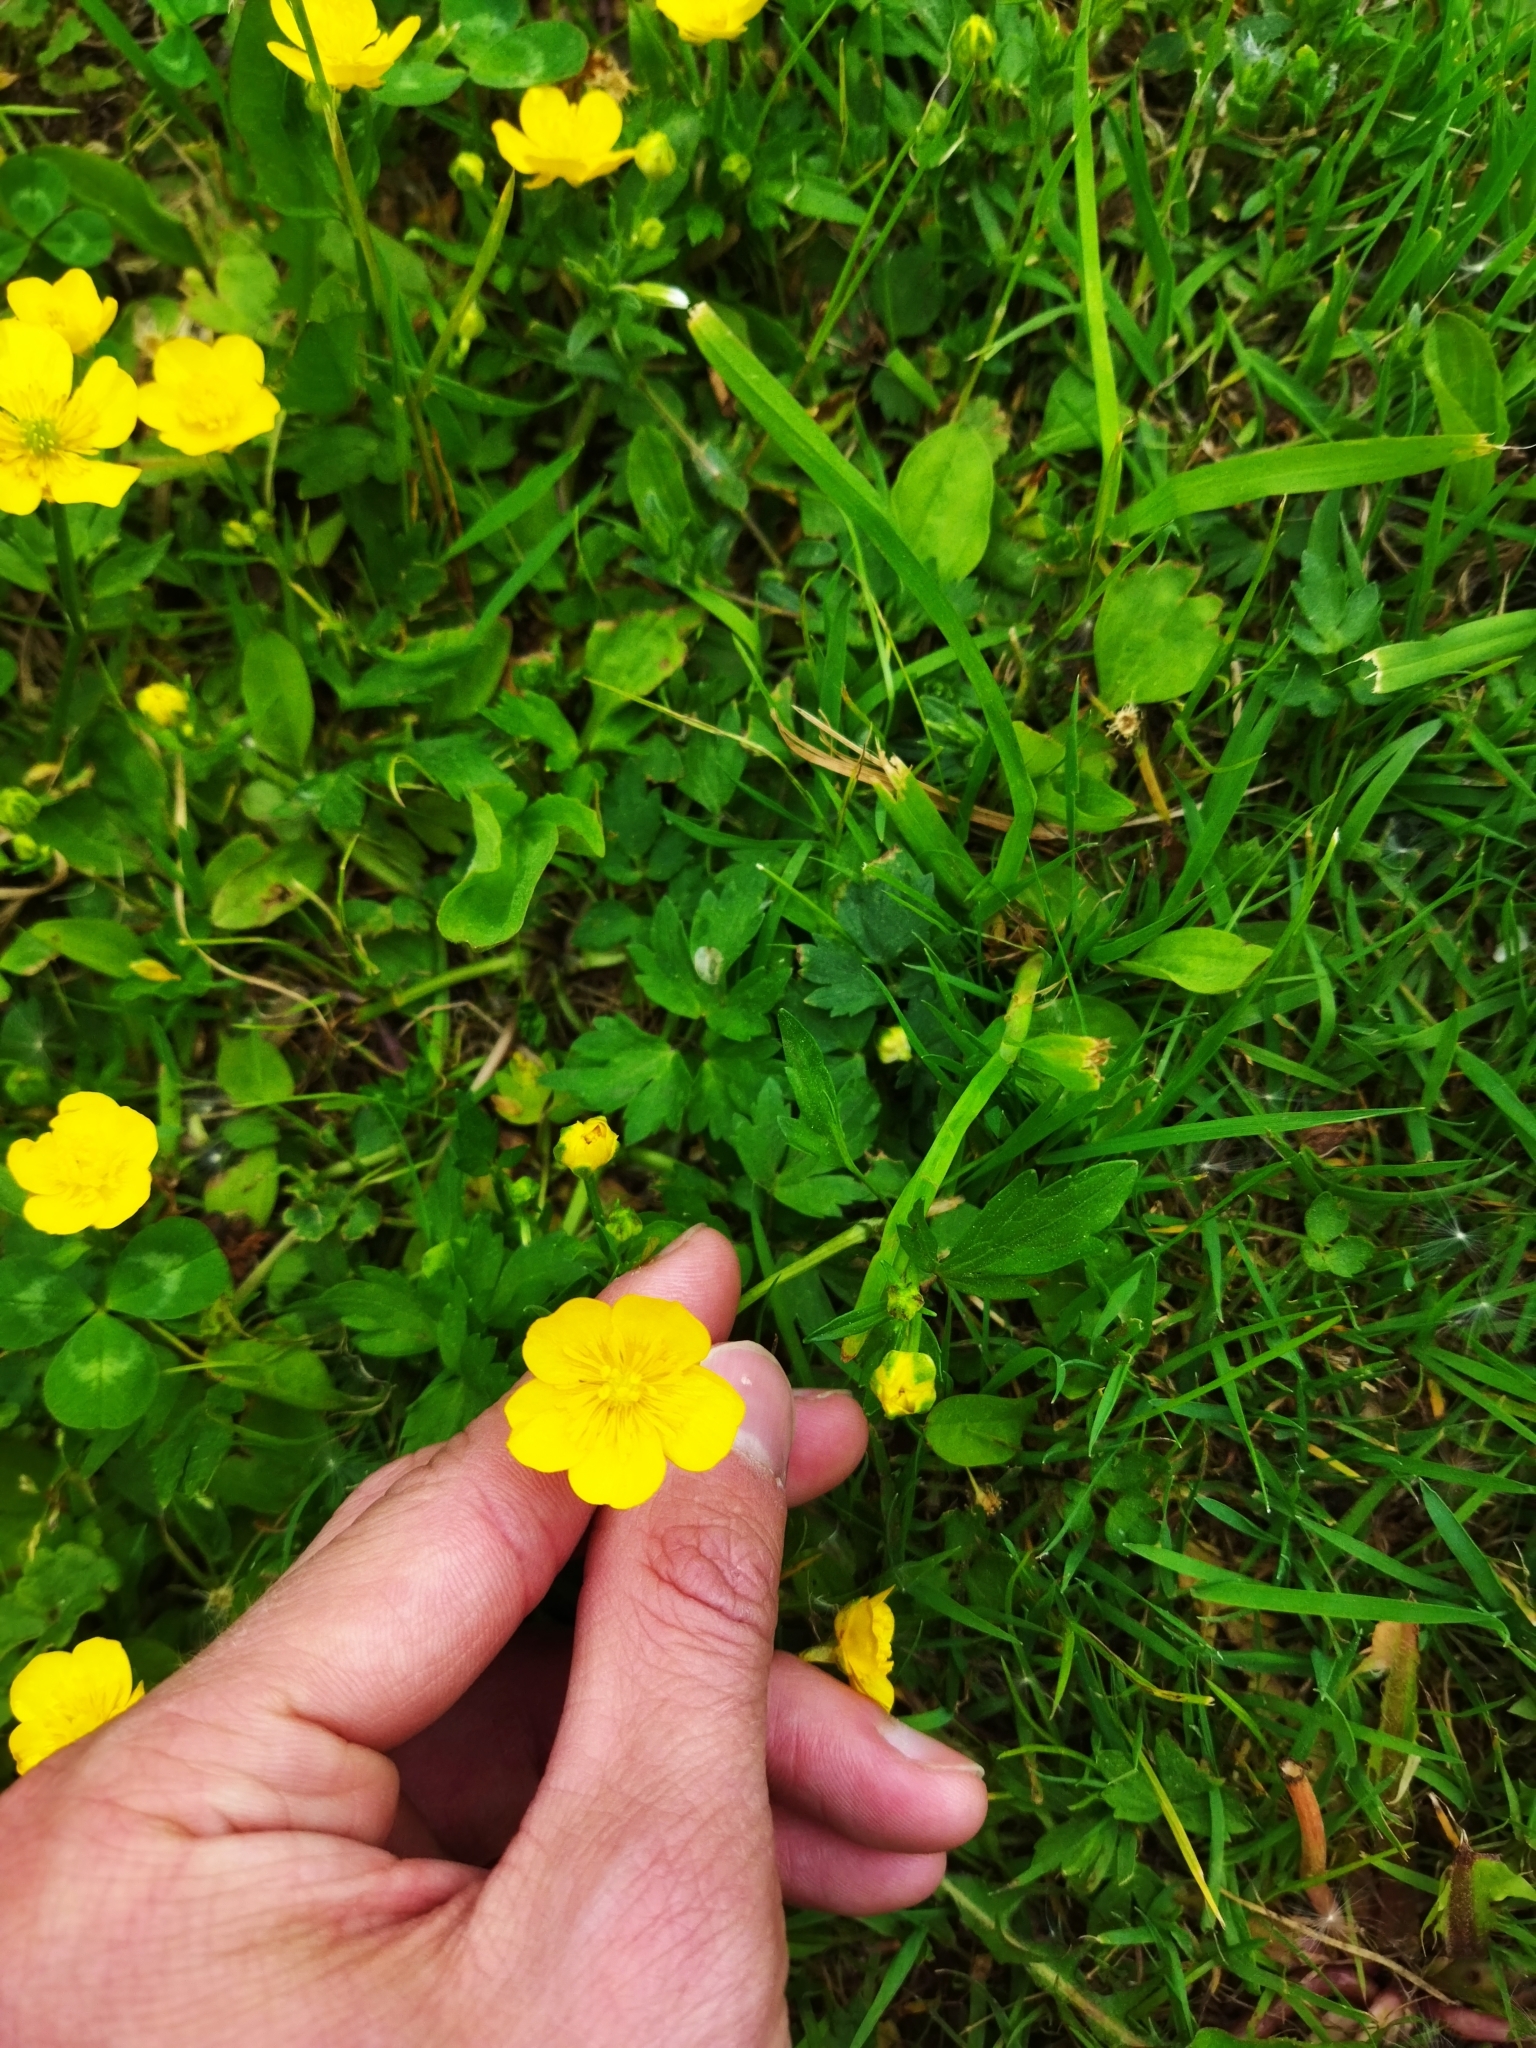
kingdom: Plantae
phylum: Tracheophyta
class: Magnoliopsida
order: Ranunculales
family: Ranunculaceae
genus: Ranunculus
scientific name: Ranunculus repens
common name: Creeping buttercup
